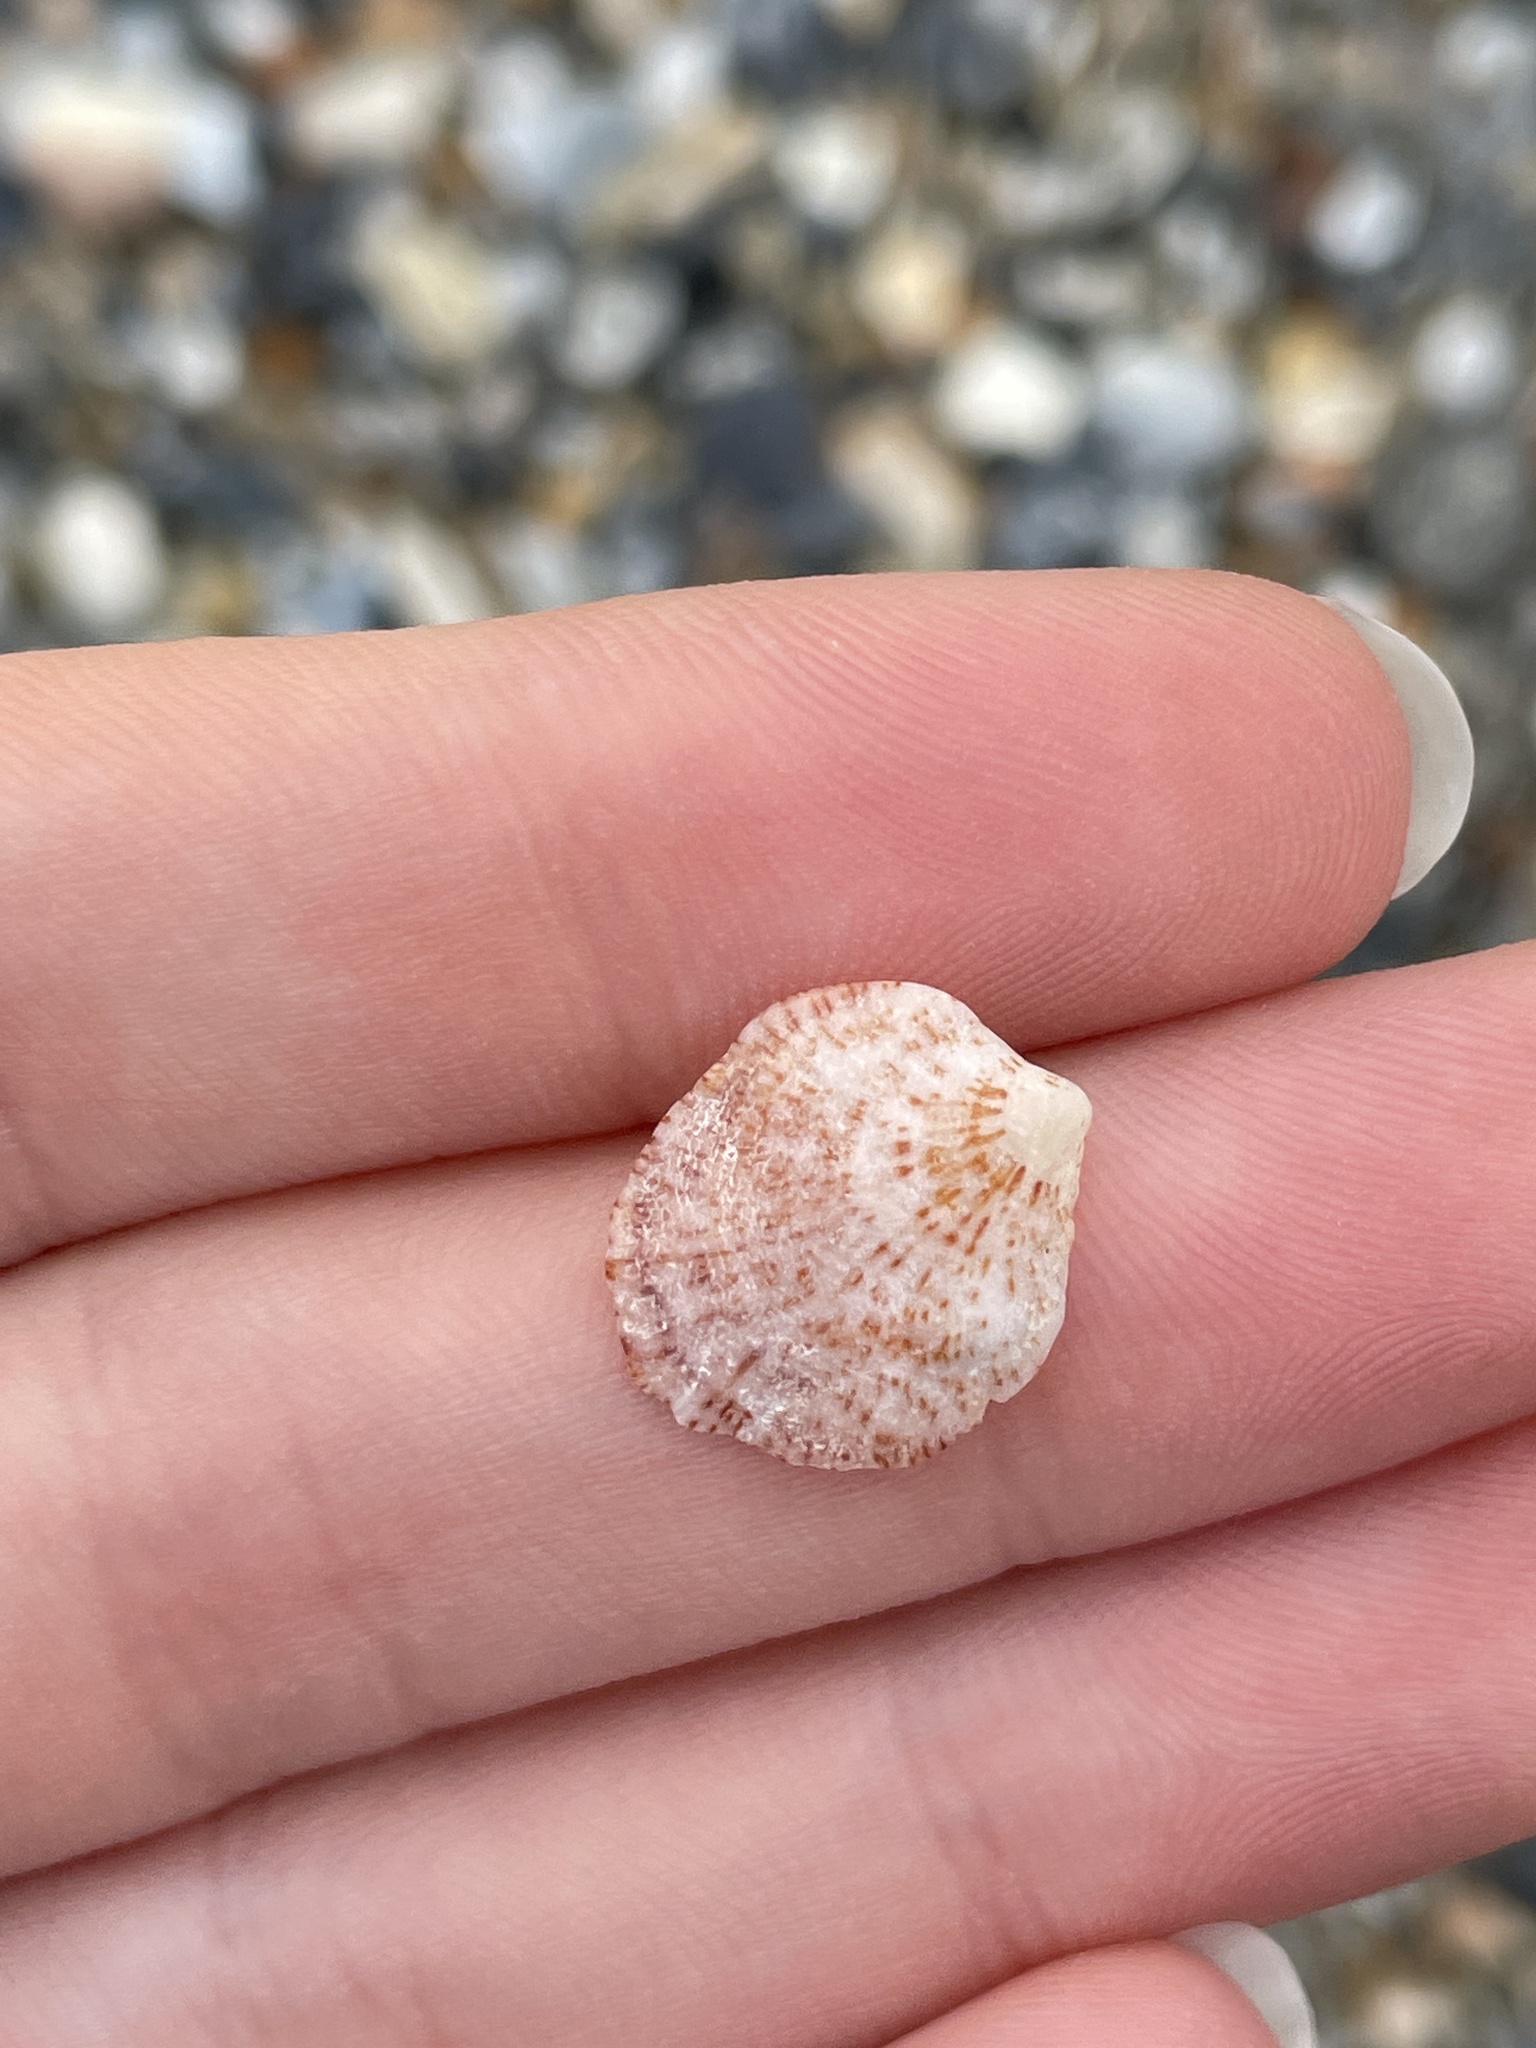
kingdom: Animalia
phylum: Mollusca
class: Bivalvia
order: Pectinida
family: Plicatulidae
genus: Plicatula
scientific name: Plicatula gibbosa
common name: Atlantic kitten's paw
